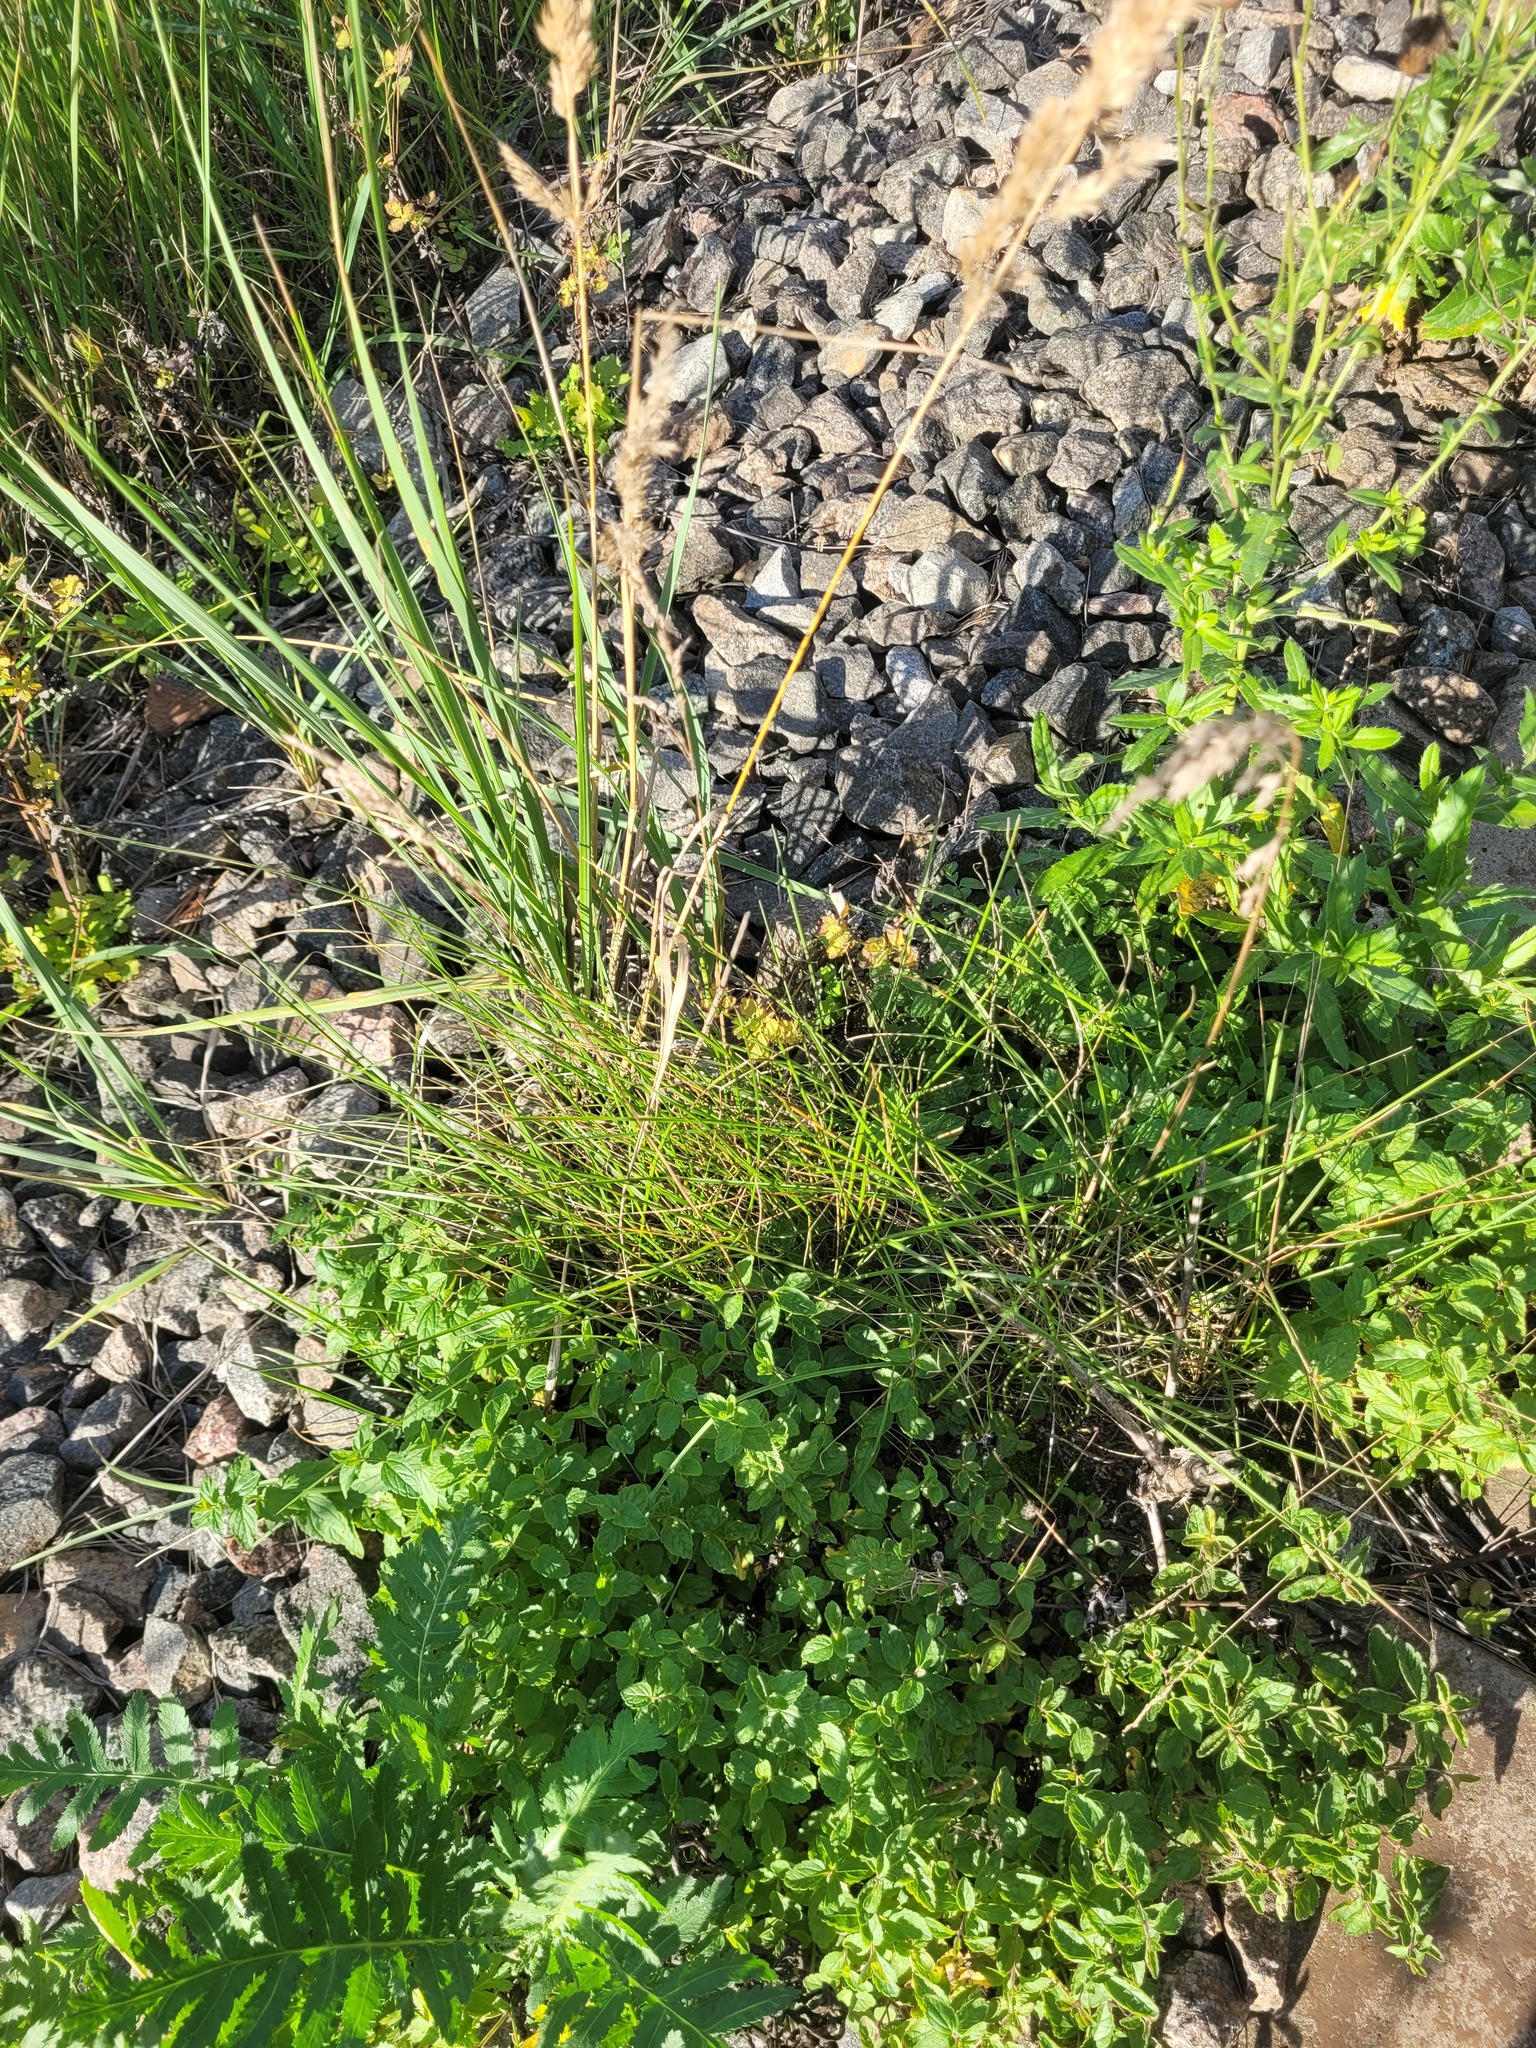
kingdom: Plantae
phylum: Tracheophyta
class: Liliopsida
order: Poales
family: Poaceae
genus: Poa
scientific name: Poa angustifolia
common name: Narrow-leaved meadow-grass
